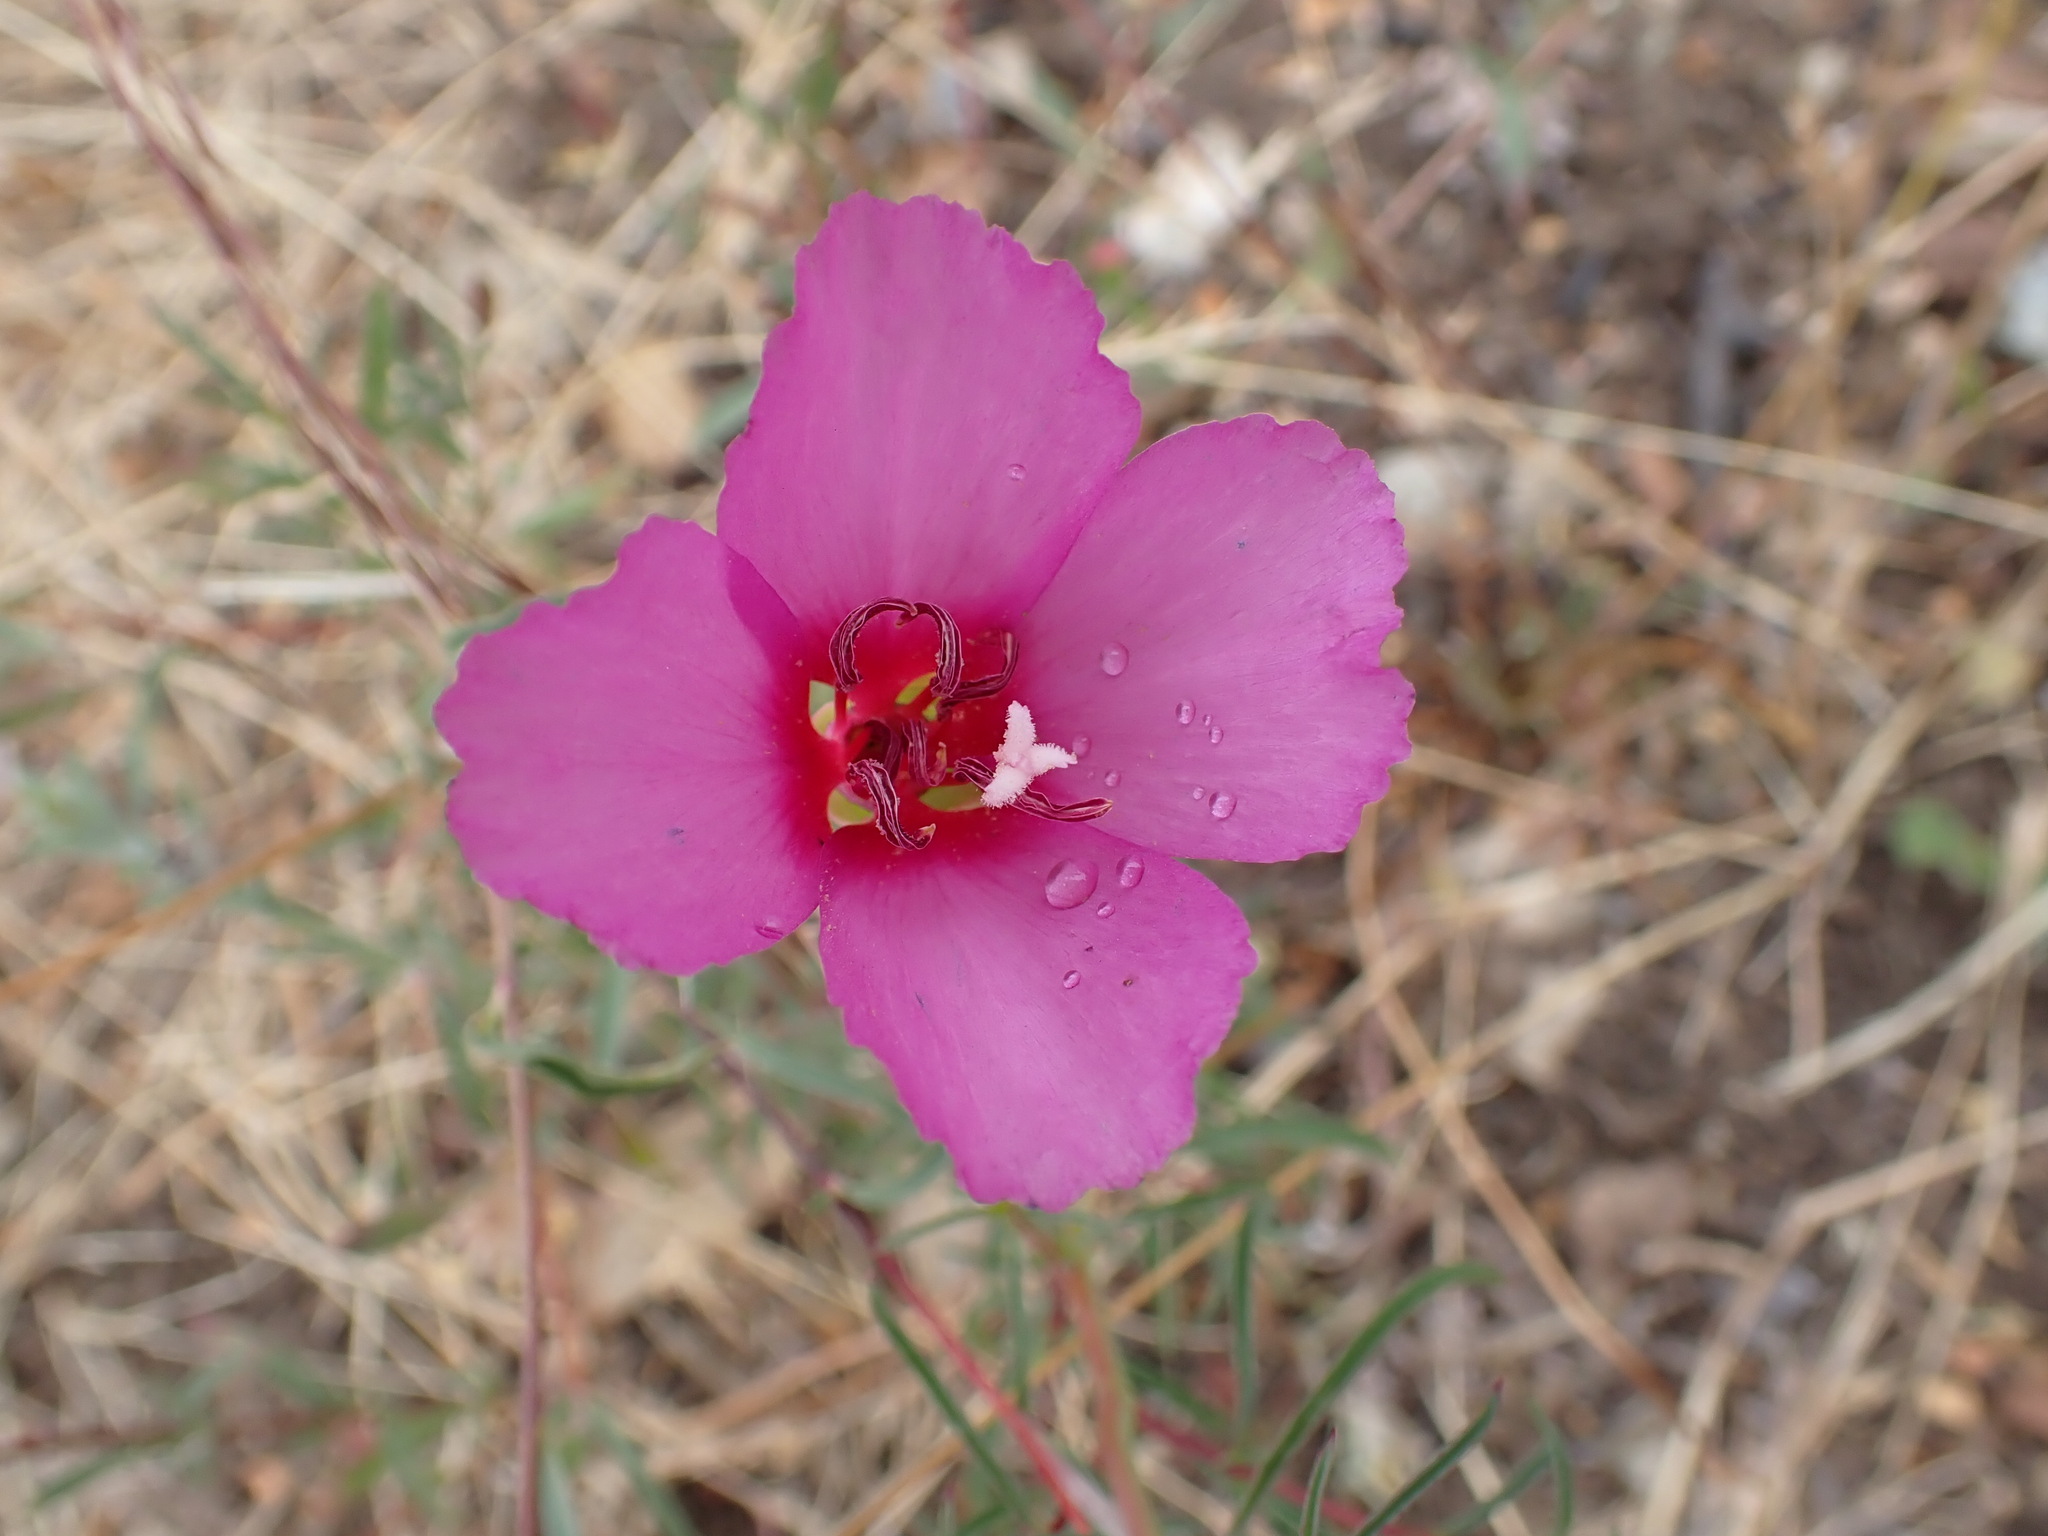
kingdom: Plantae
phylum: Tracheophyta
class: Magnoliopsida
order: Myrtales
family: Onagraceae
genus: Clarkia
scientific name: Clarkia rubicunda
